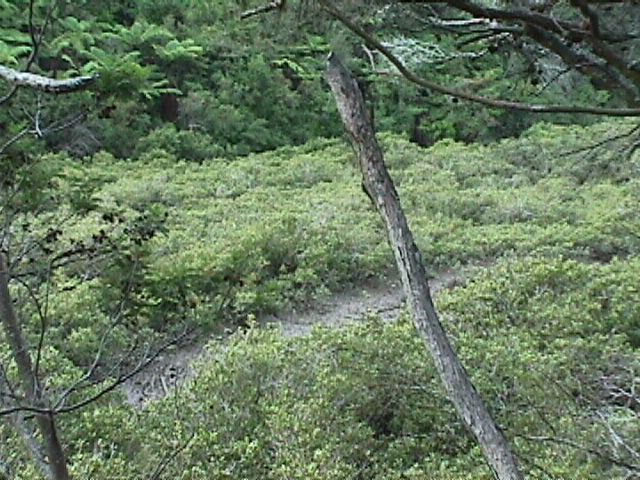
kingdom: Plantae
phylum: Tracheophyta
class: Magnoliopsida
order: Lamiales
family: Acanthaceae
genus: Avicennia
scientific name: Avicennia marina
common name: Gray mangrove
